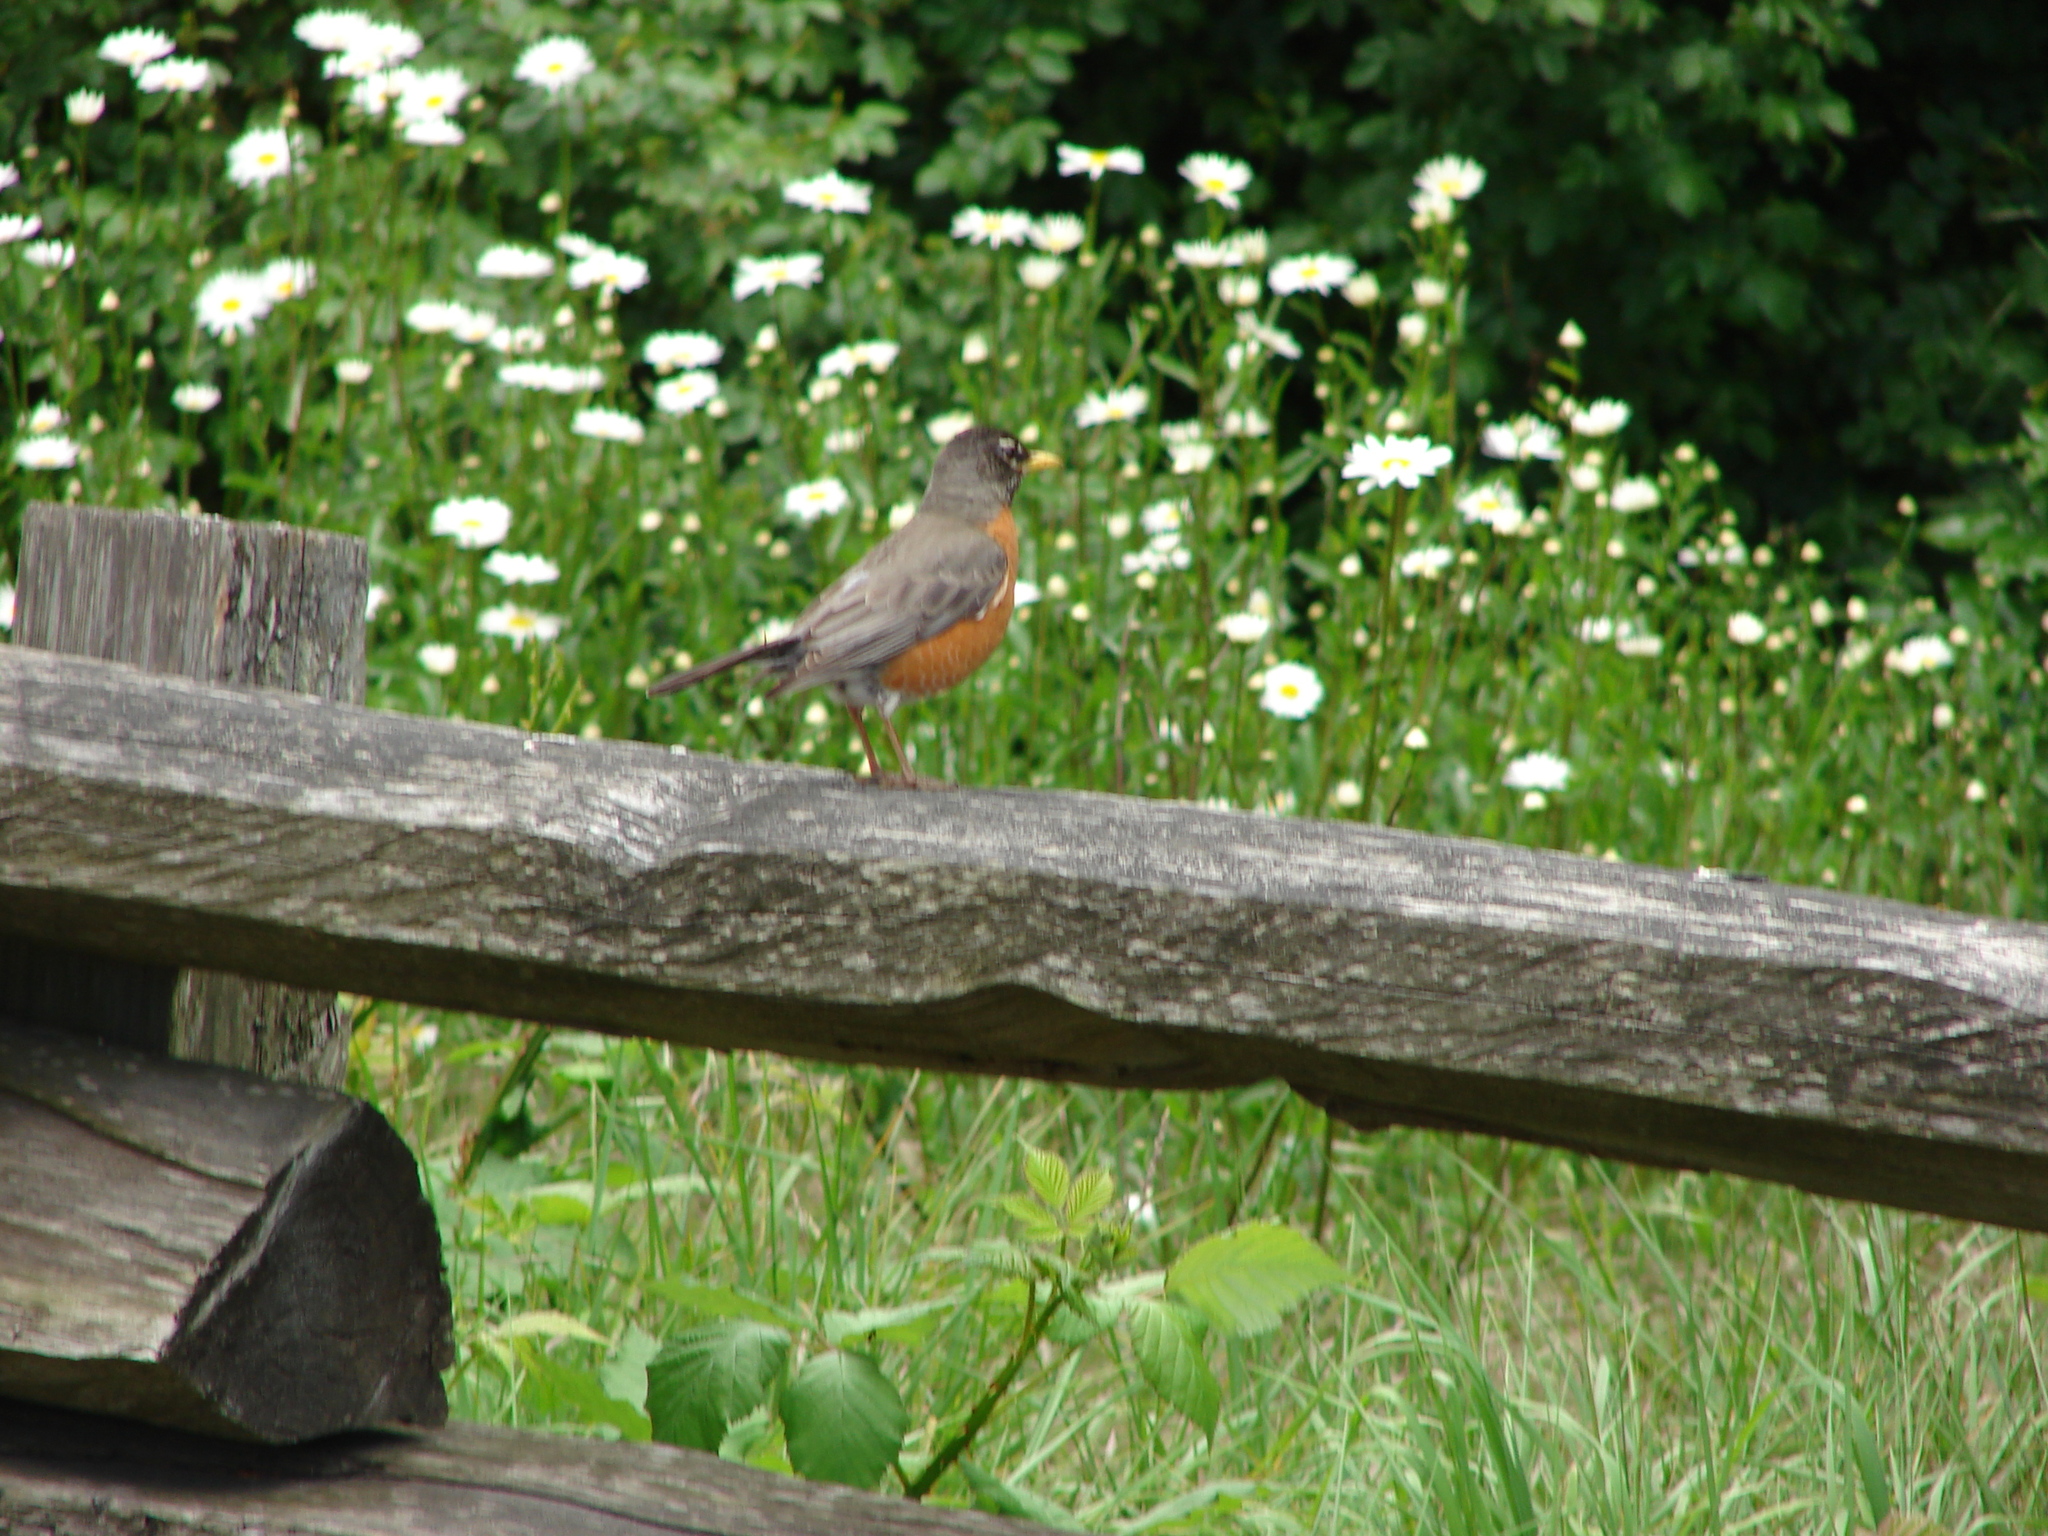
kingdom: Animalia
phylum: Chordata
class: Aves
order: Passeriformes
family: Turdidae
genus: Turdus
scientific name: Turdus migratorius
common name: American robin
